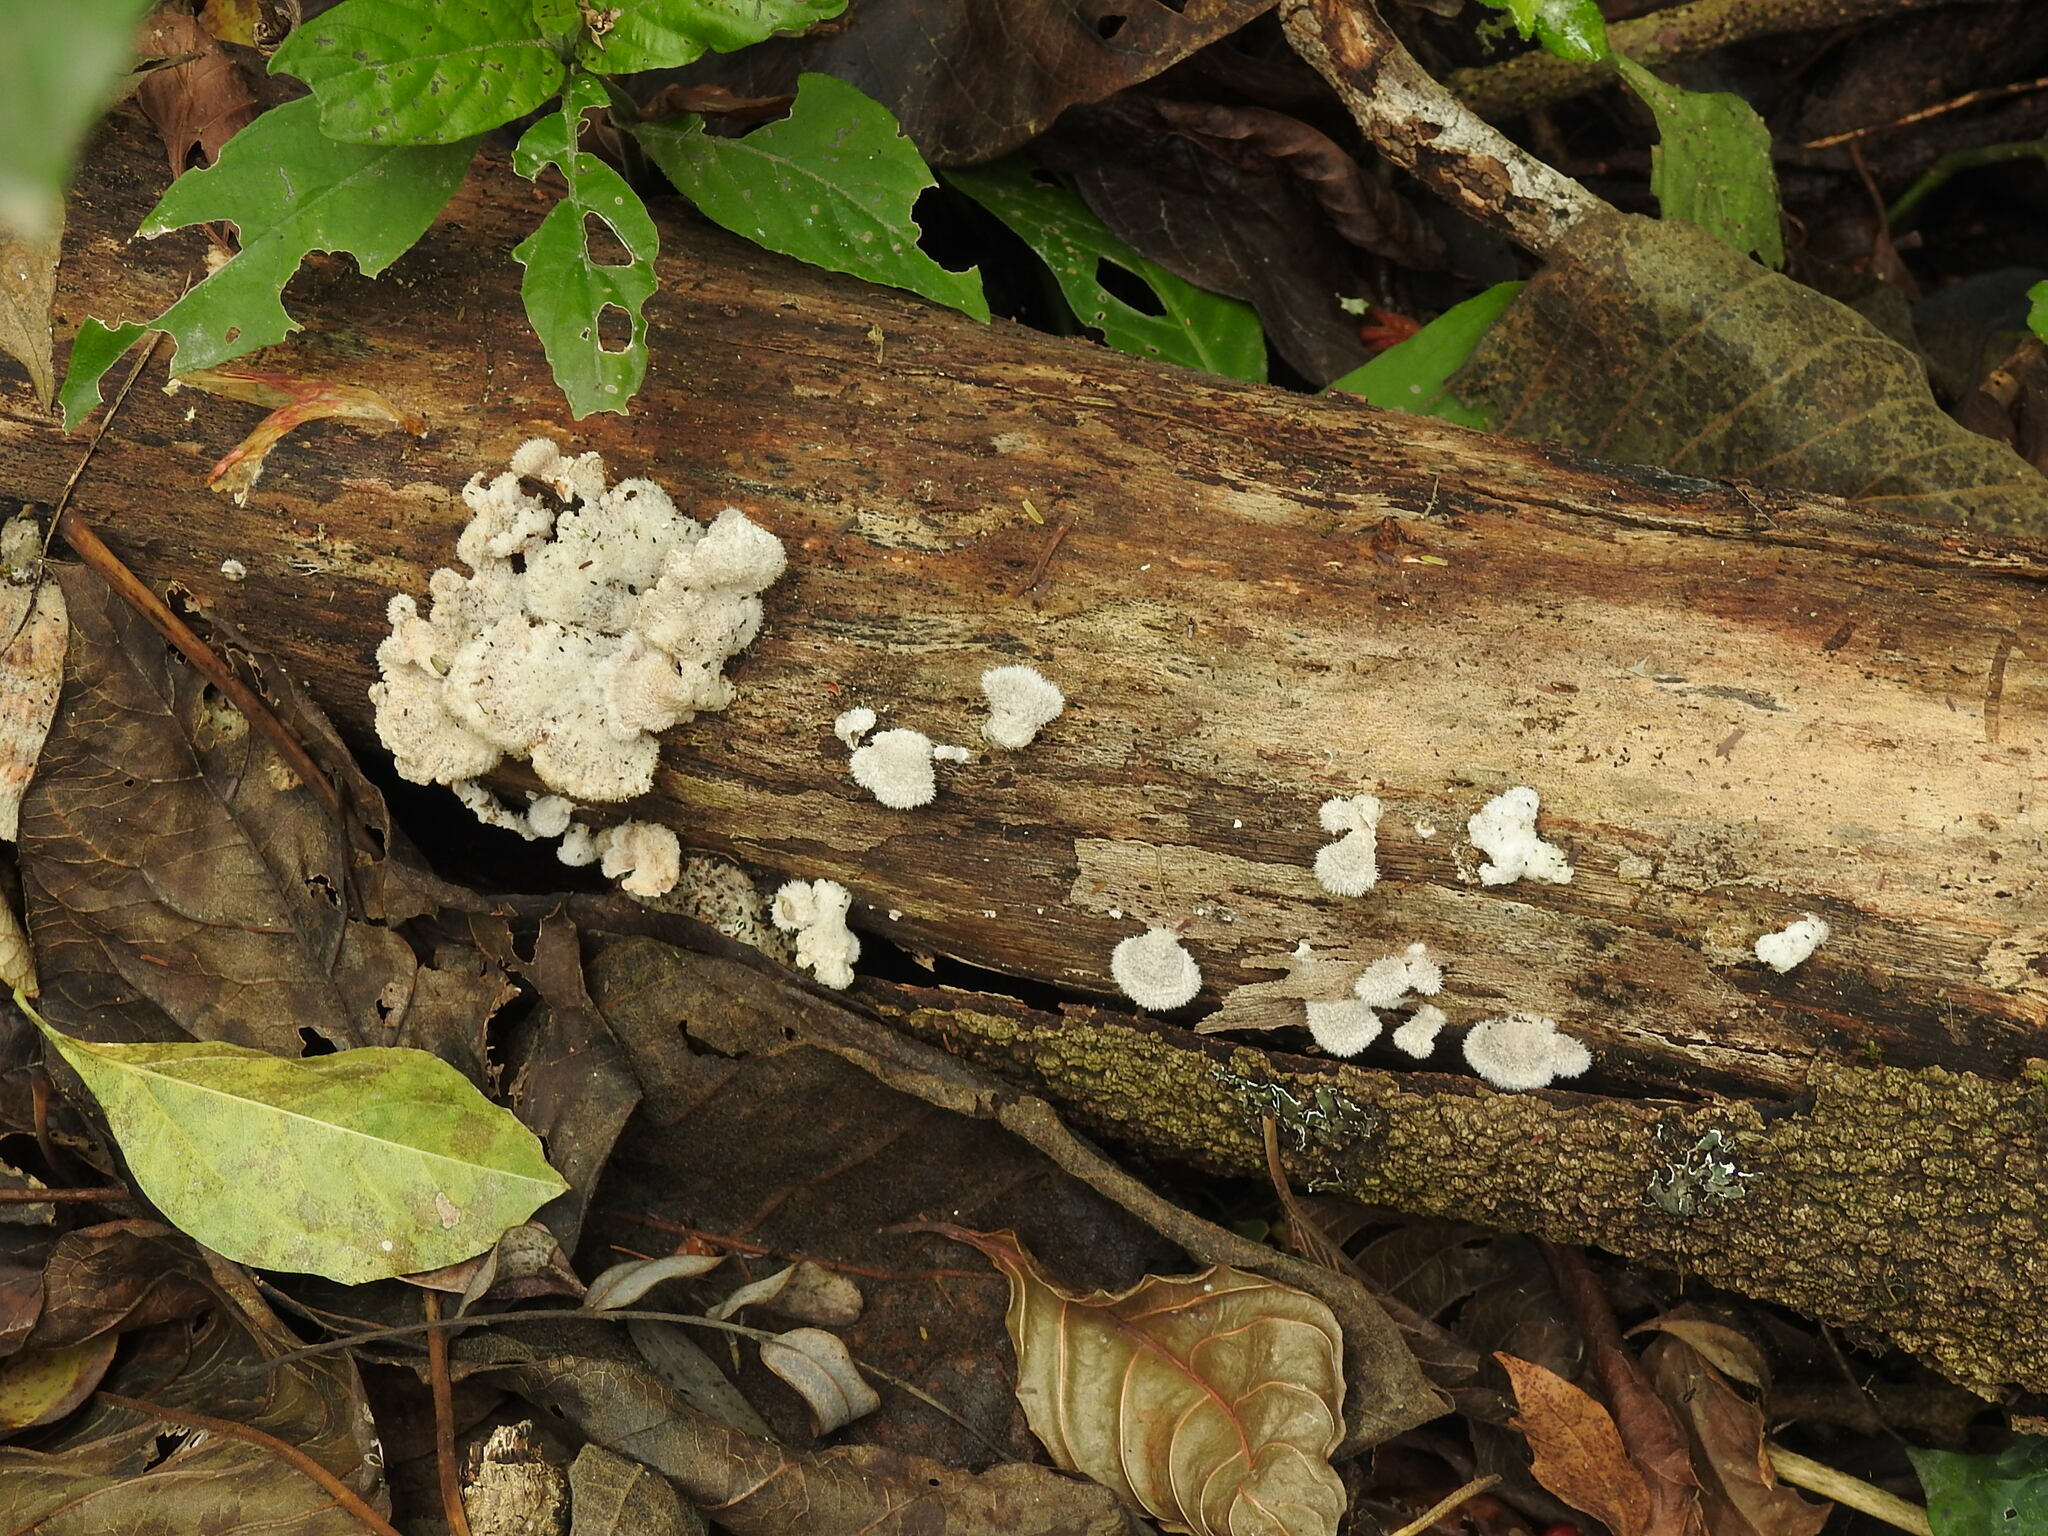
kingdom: Fungi
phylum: Basidiomycota
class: Agaricomycetes
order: Agaricales
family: Schizophyllaceae
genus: Schizophyllum
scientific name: Schizophyllum commune
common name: Common porecrust
